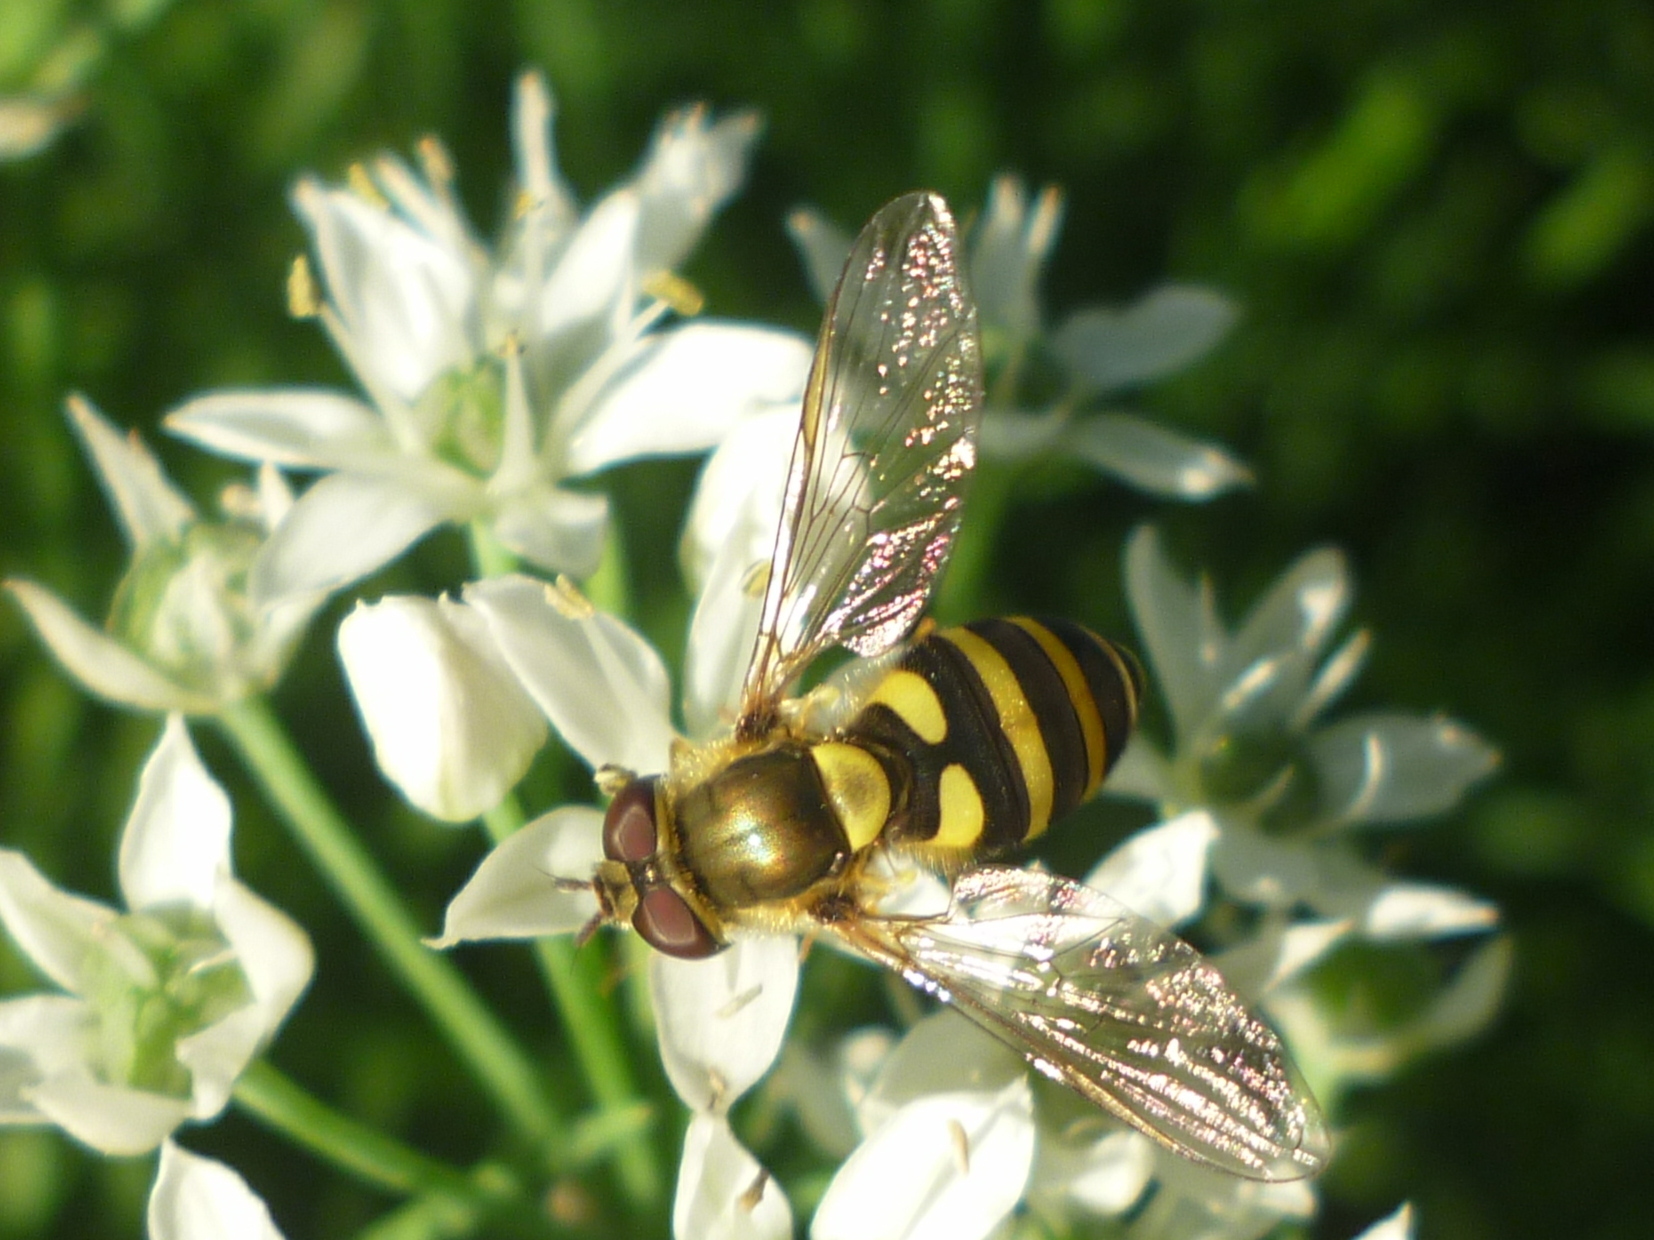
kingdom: Animalia
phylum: Arthropoda
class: Insecta
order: Diptera
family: Syrphidae
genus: Syrphus
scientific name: Syrphus
